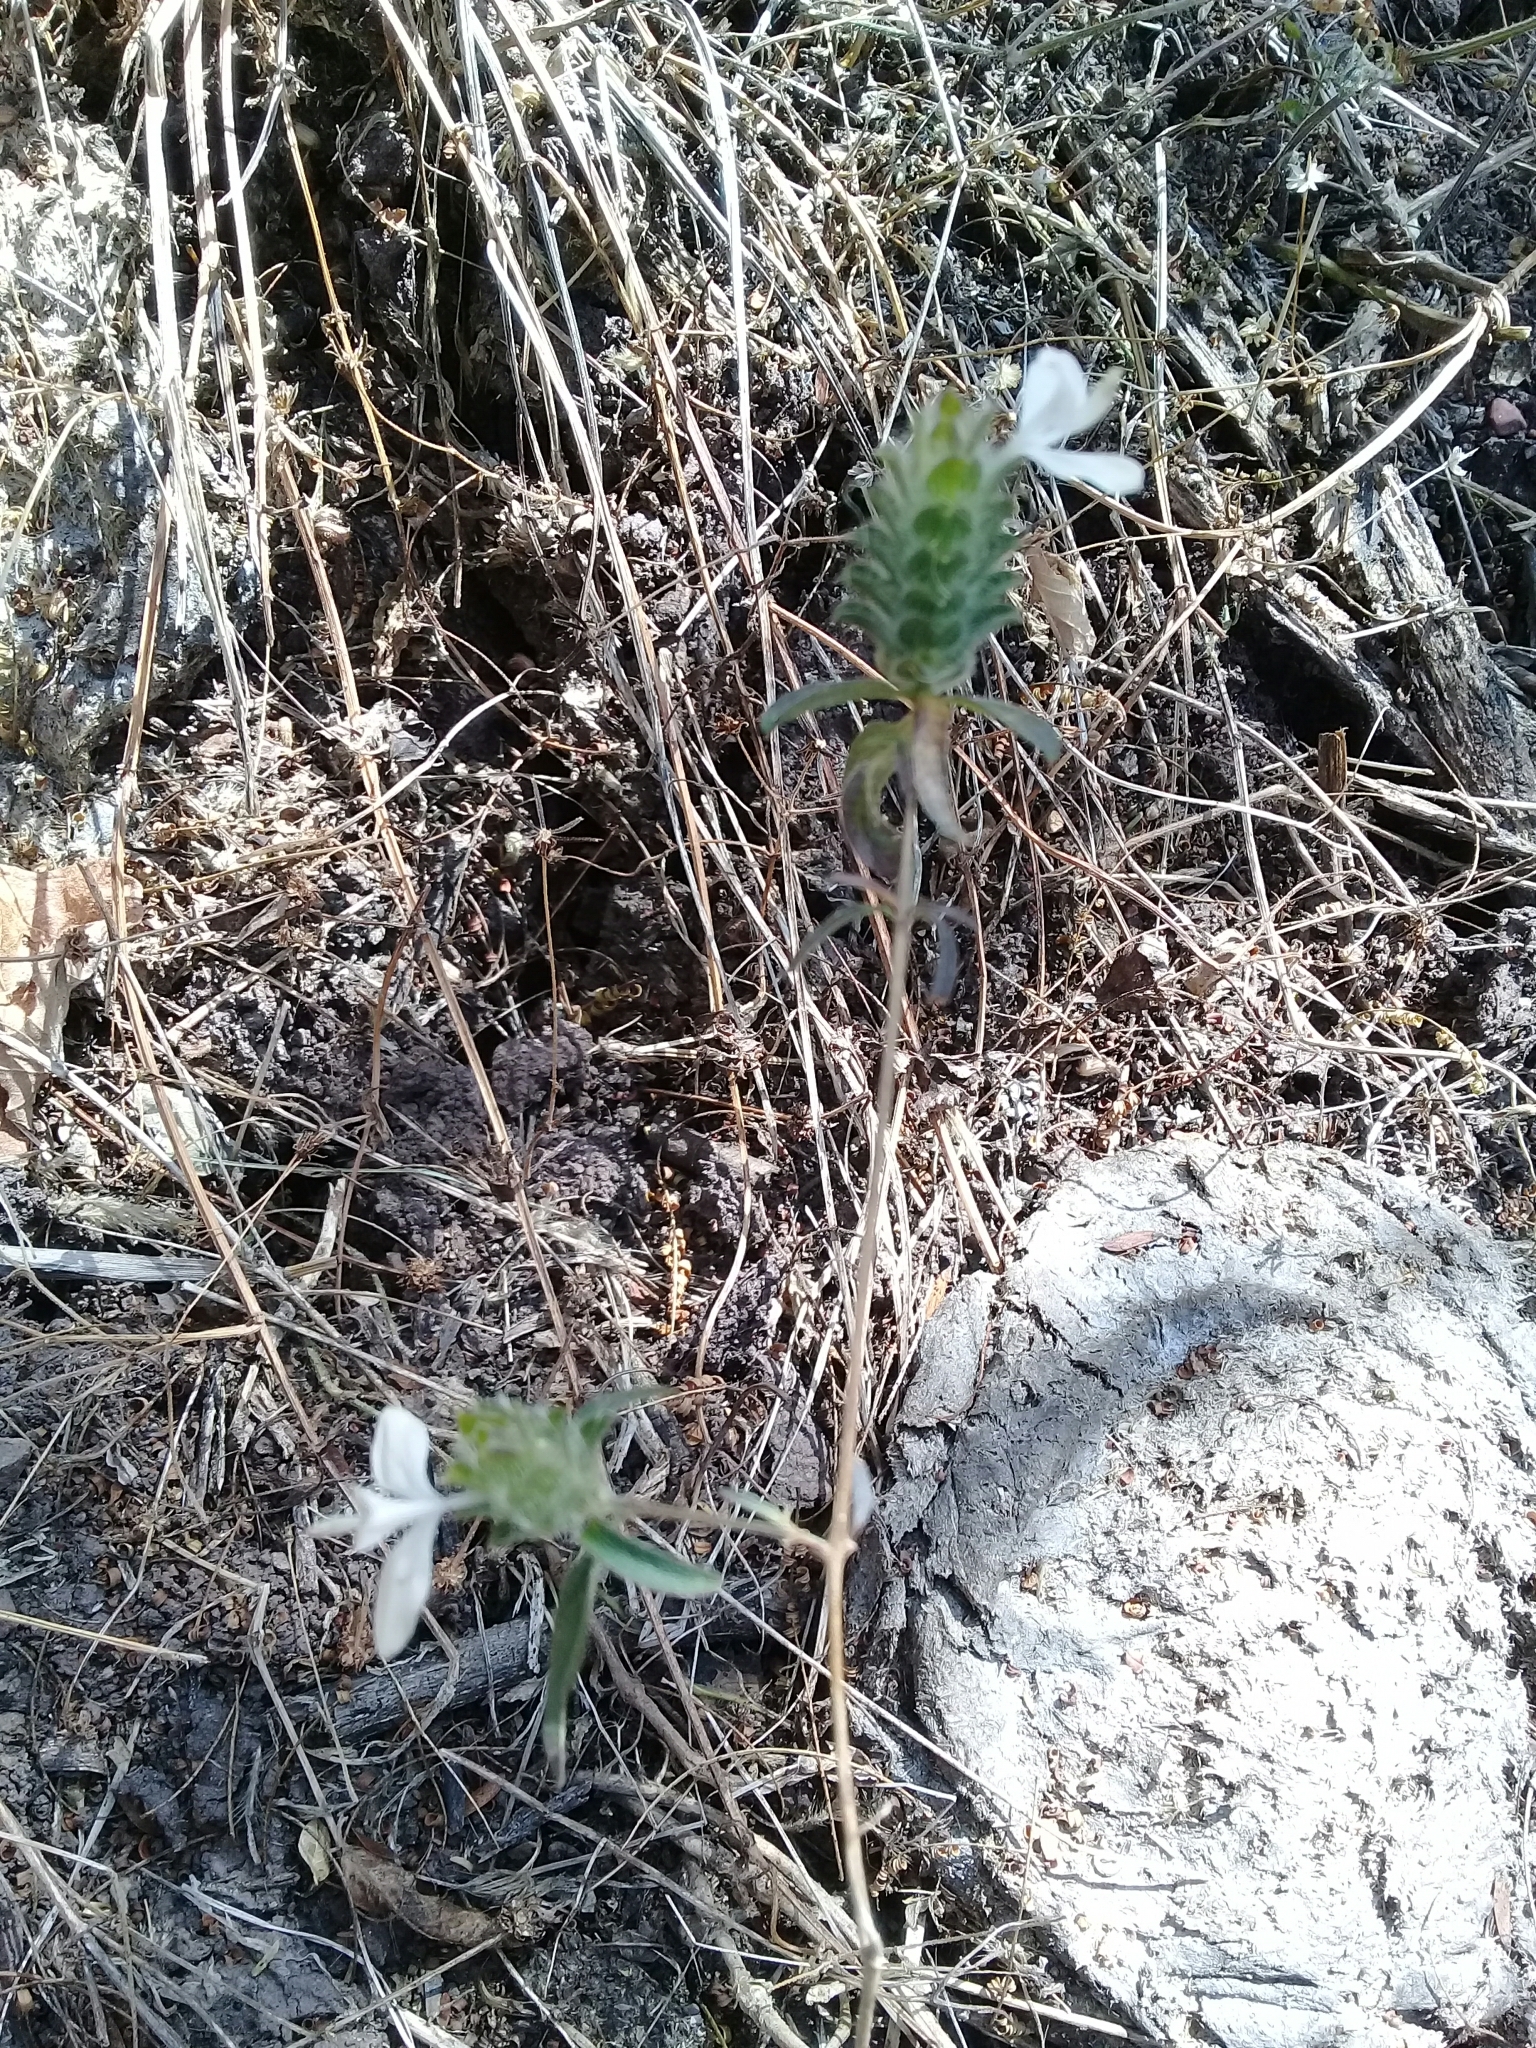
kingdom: Plantae
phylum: Tracheophyta
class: Magnoliopsida
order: Lamiales
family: Acanthaceae
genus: Tetramerium
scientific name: Tetramerium nervosum
